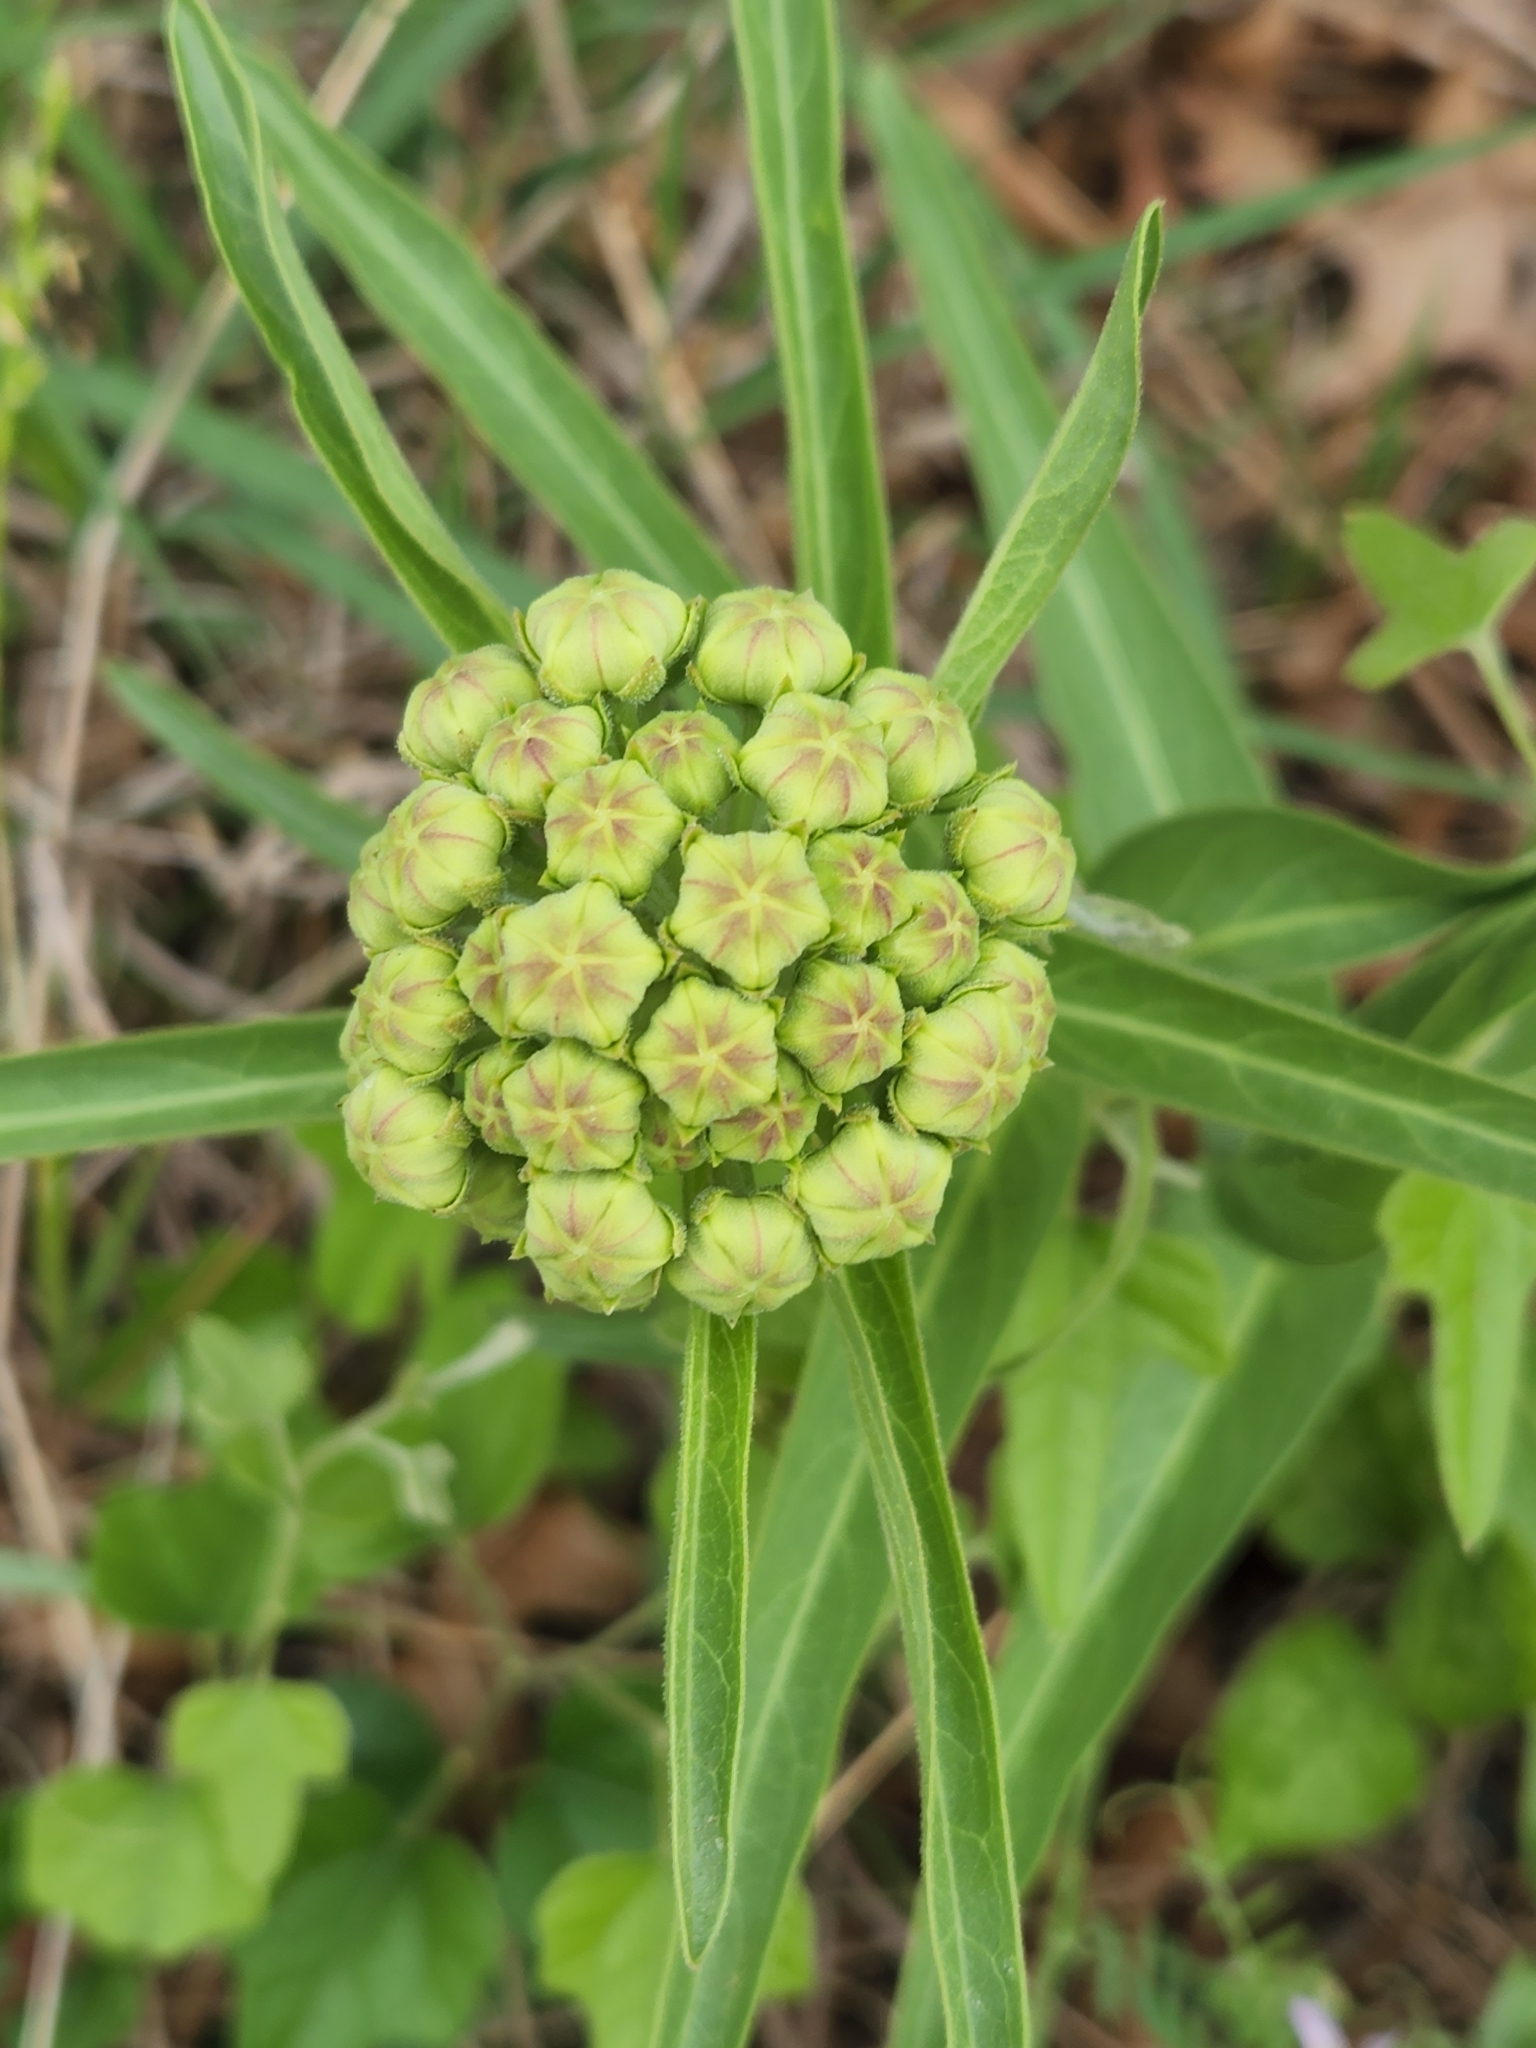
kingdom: Plantae
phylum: Tracheophyta
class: Magnoliopsida
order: Gentianales
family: Apocynaceae
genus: Asclepias
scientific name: Asclepias asperula
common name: Antelope horns
